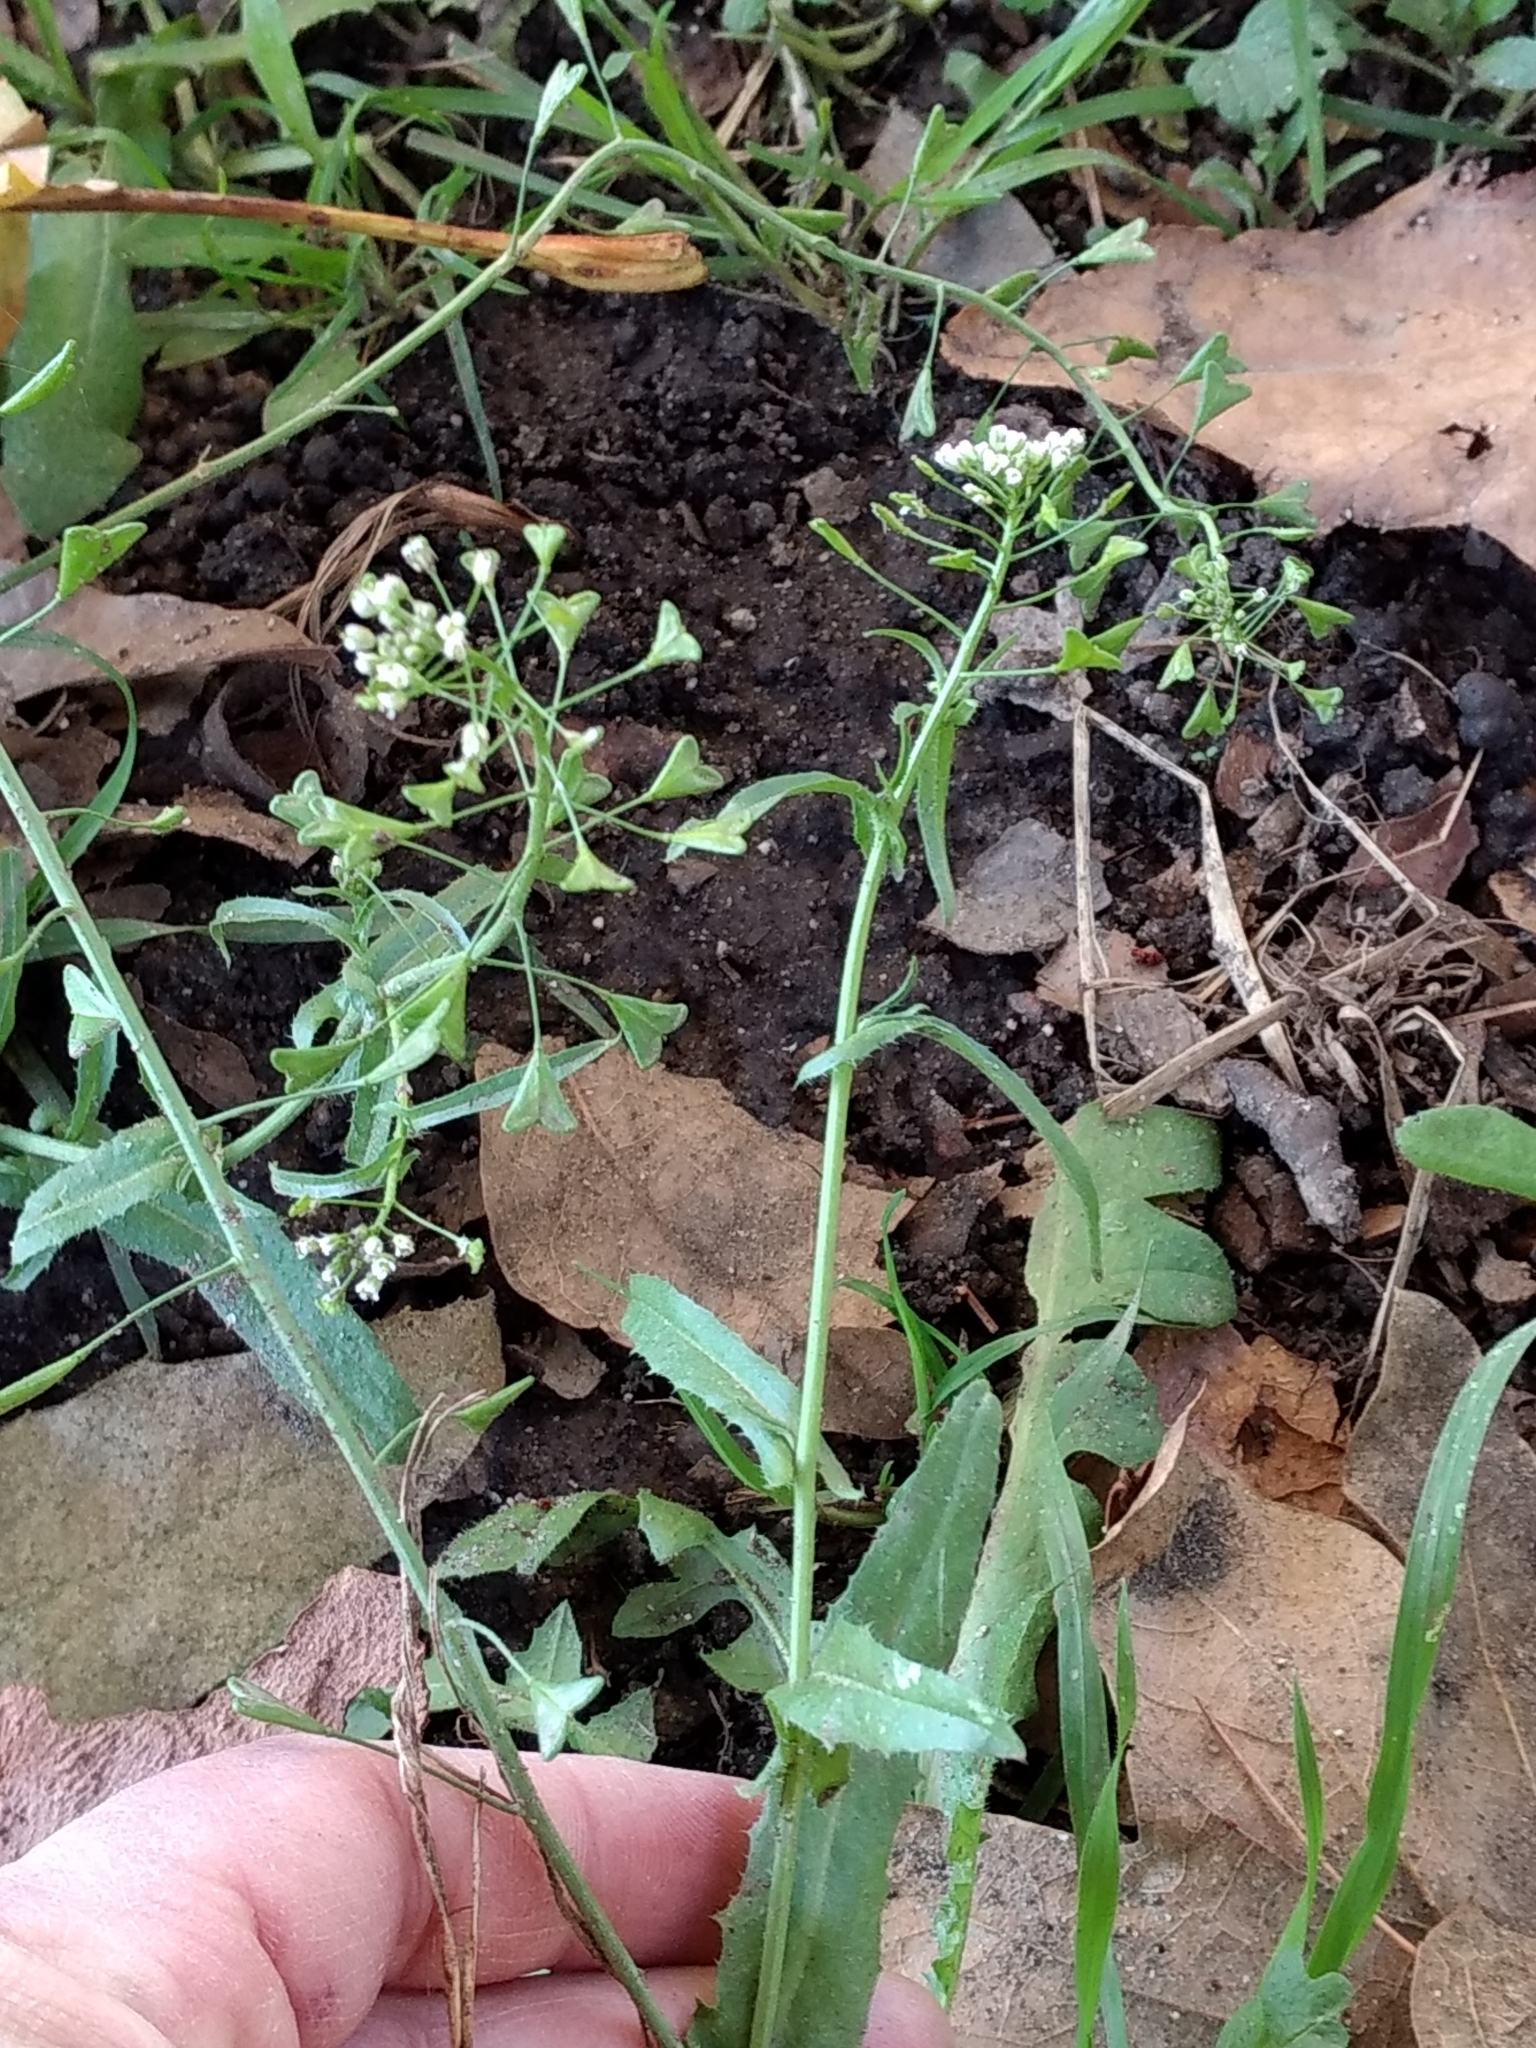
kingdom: Plantae
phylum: Tracheophyta
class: Magnoliopsida
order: Brassicales
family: Brassicaceae
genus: Capsella
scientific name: Capsella bursa-pastoris
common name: Shepherd's purse
